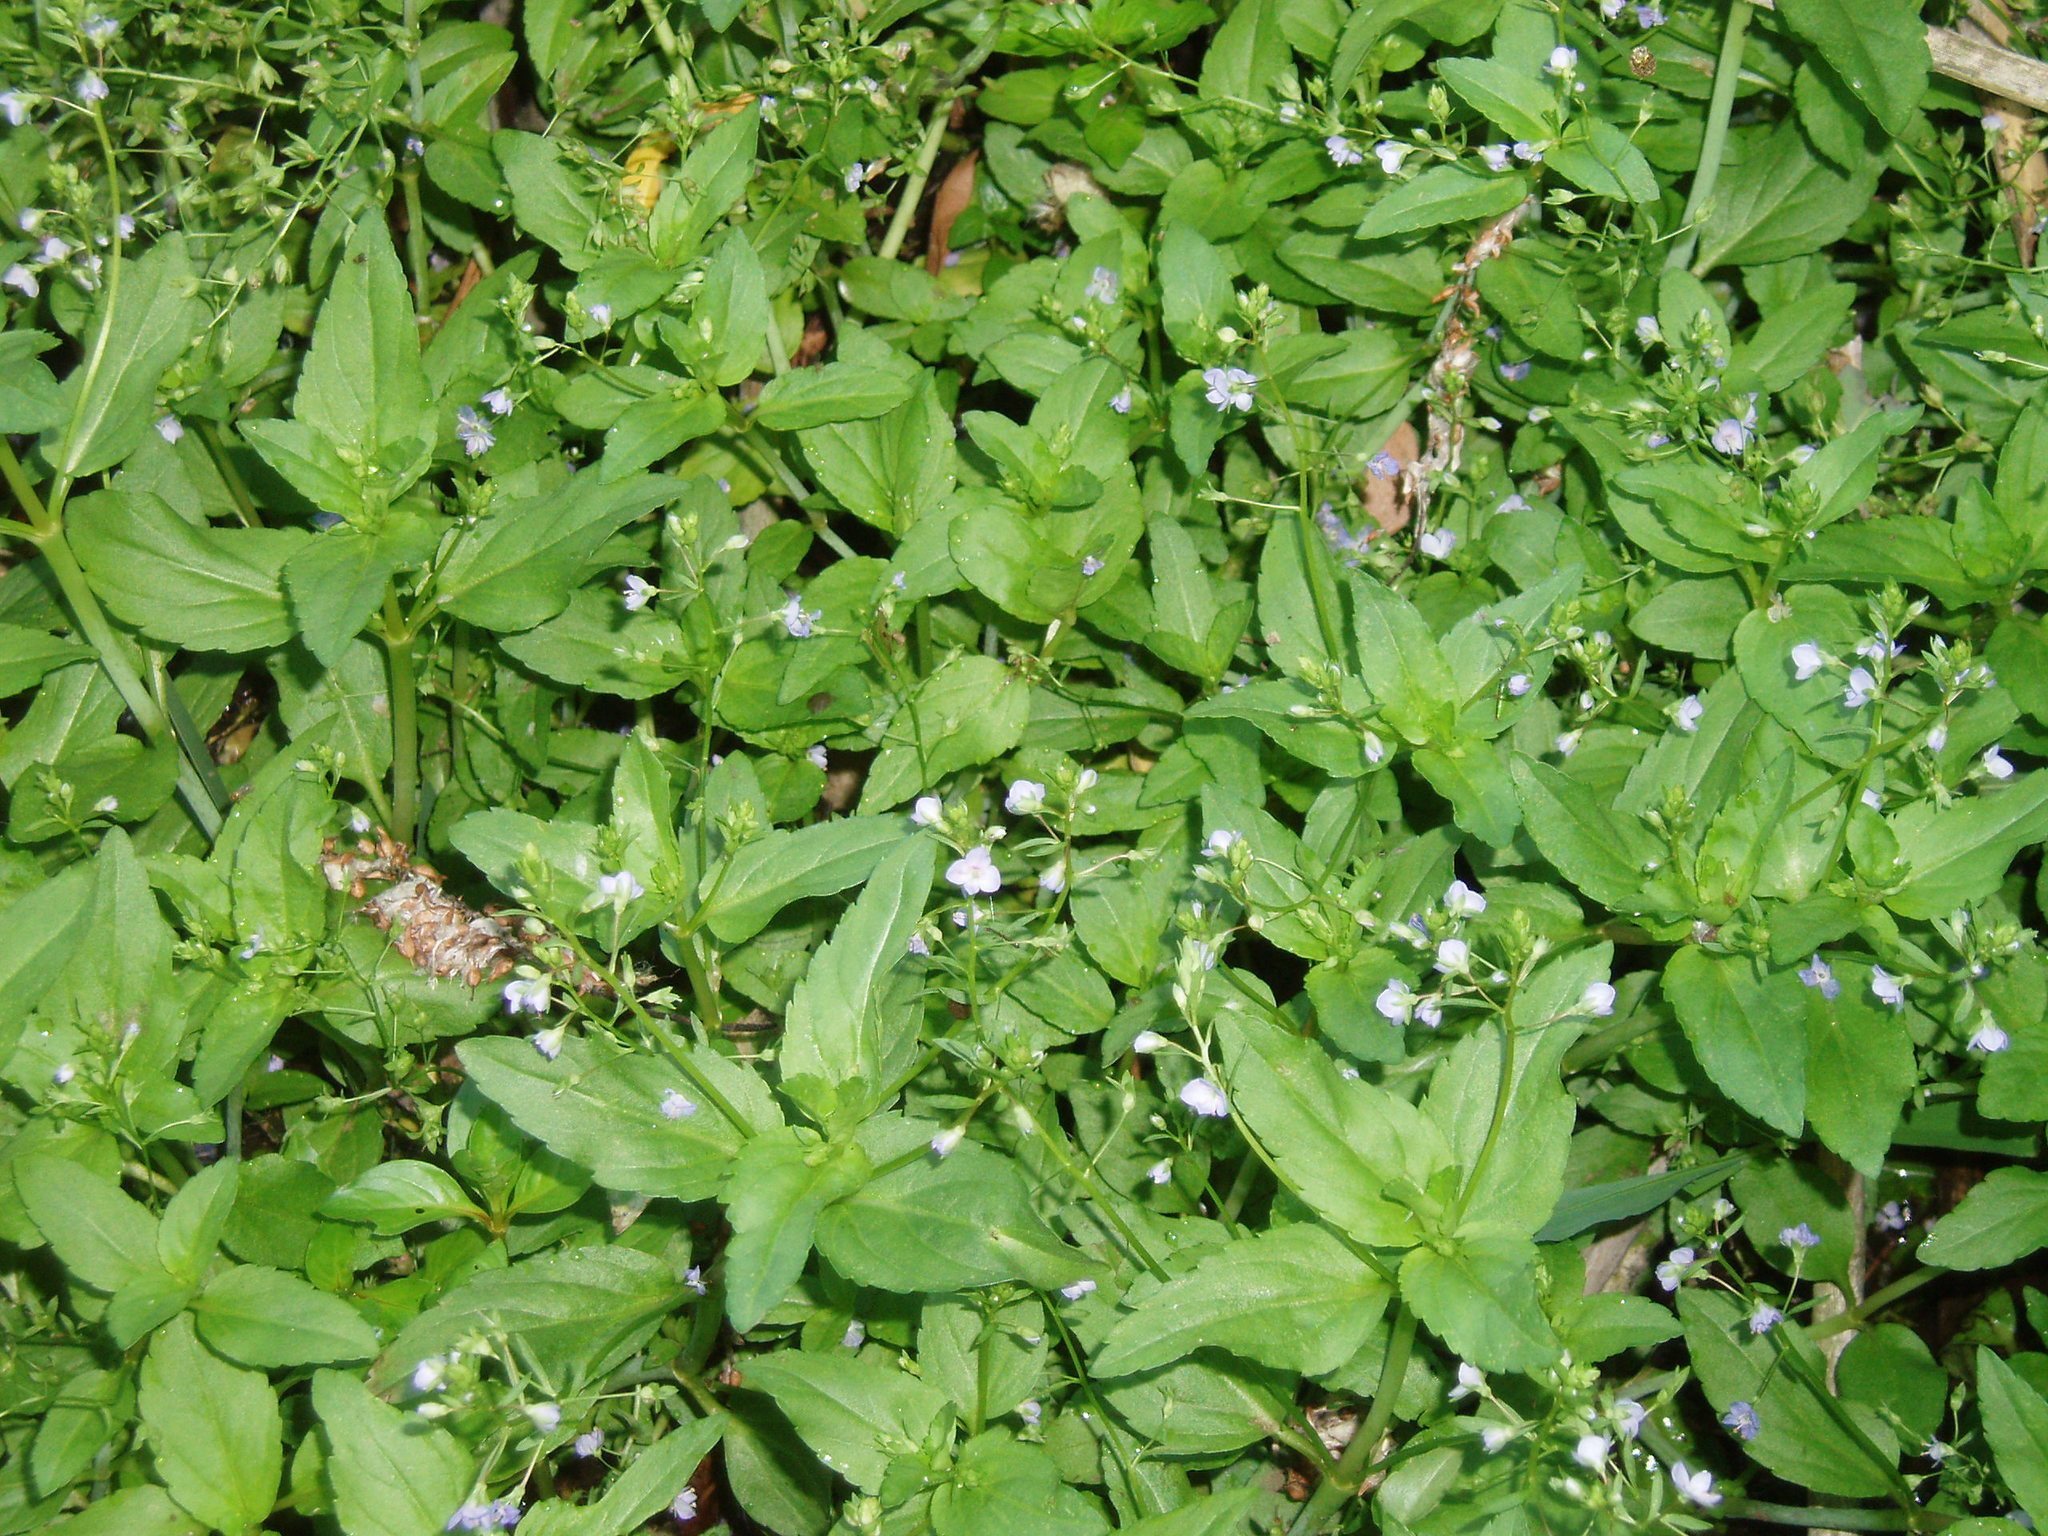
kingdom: Plantae
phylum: Tracheophyta
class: Magnoliopsida
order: Lamiales
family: Plantaginaceae
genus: Veronica
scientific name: Veronica americana
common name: American brooklime
